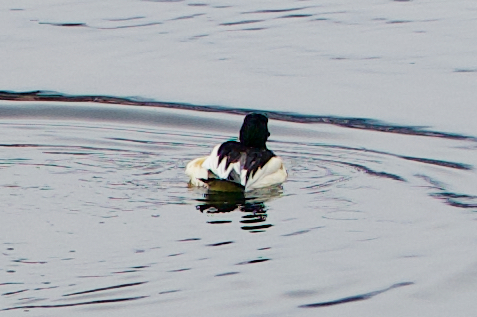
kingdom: Animalia
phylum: Chordata
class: Aves
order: Anseriformes
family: Anatidae
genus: Mergus
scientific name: Mergus merganser
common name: Common merganser
